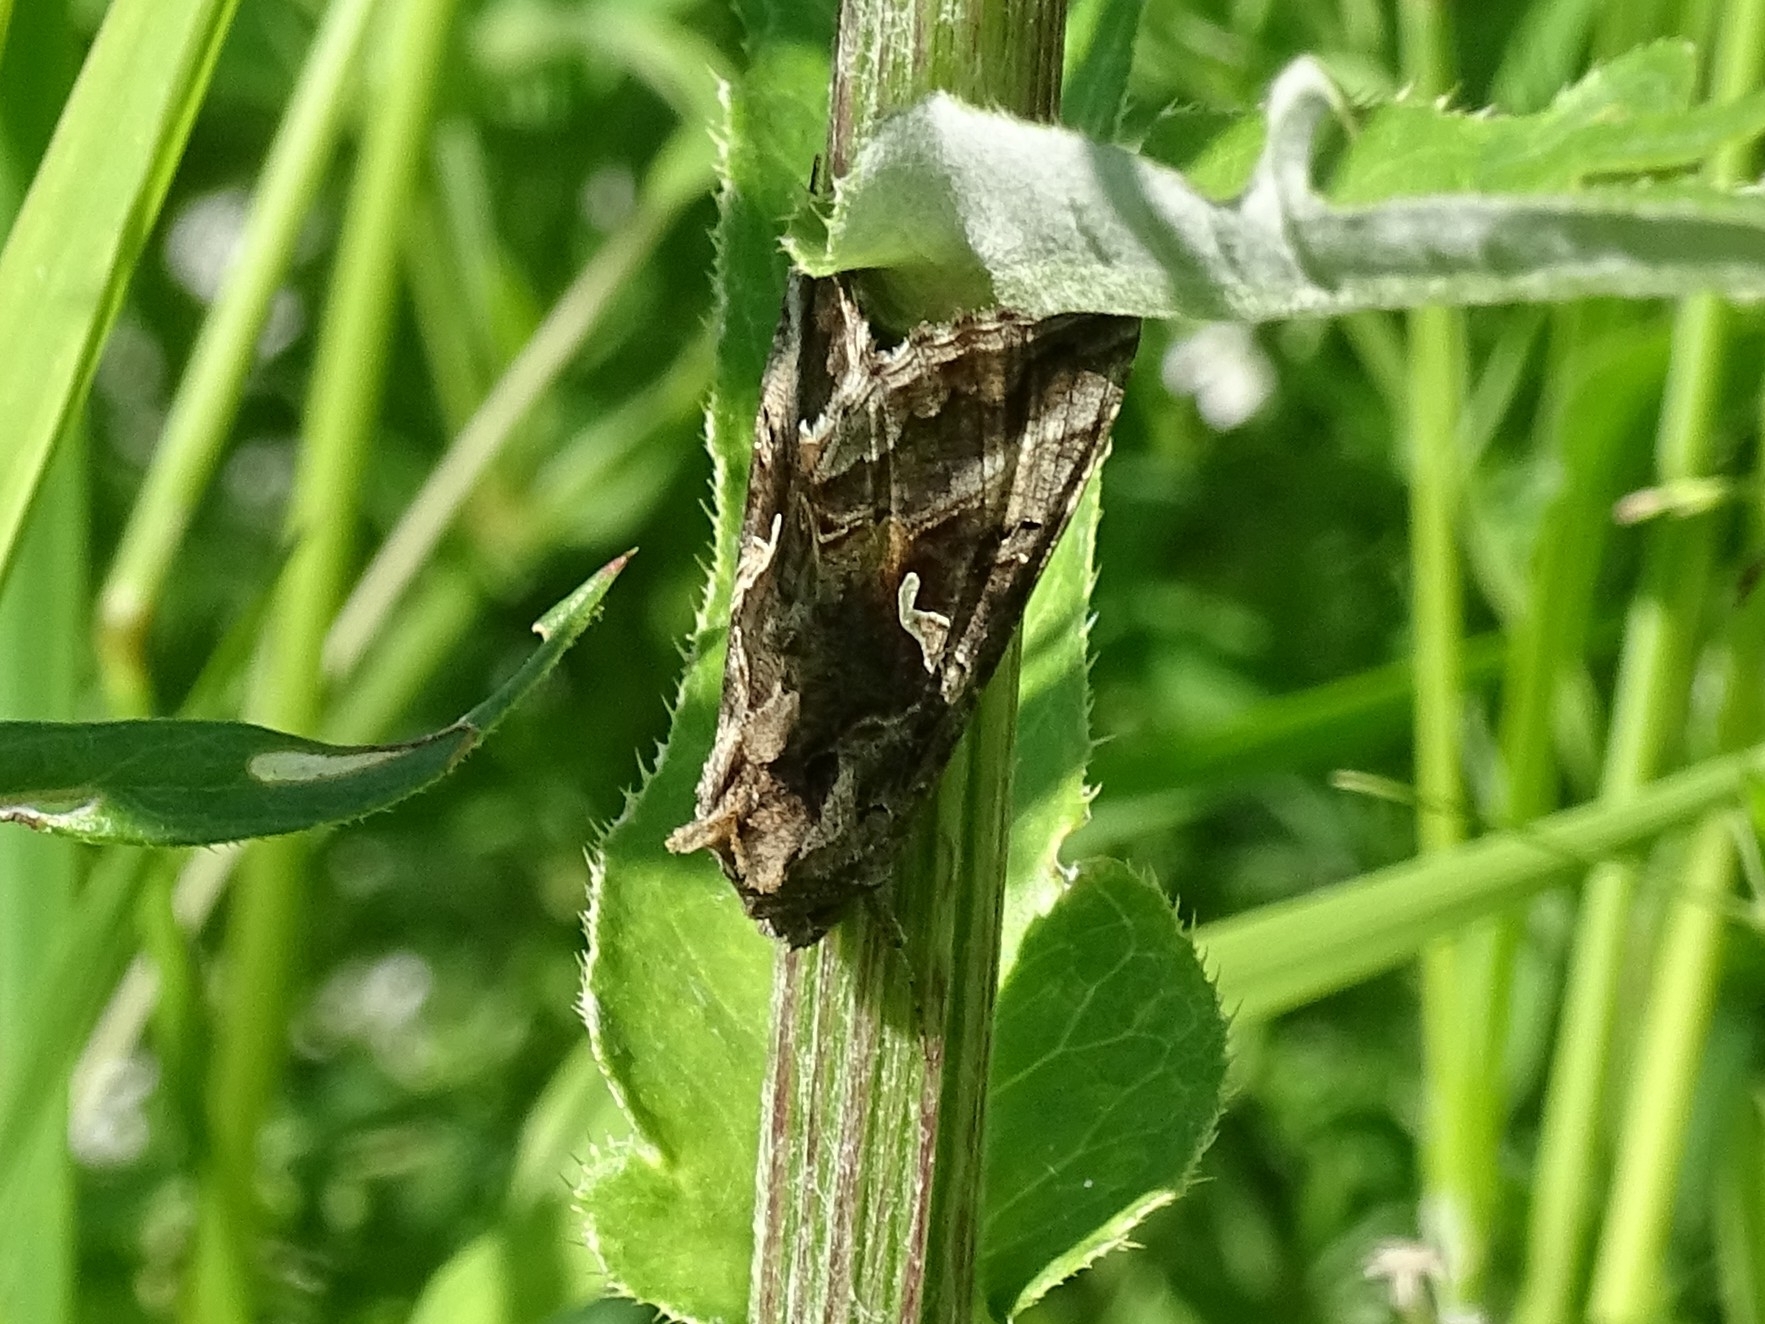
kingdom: Animalia
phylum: Arthropoda
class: Insecta
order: Lepidoptera
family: Noctuidae
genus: Autographa
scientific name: Autographa gamma
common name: Silver y
